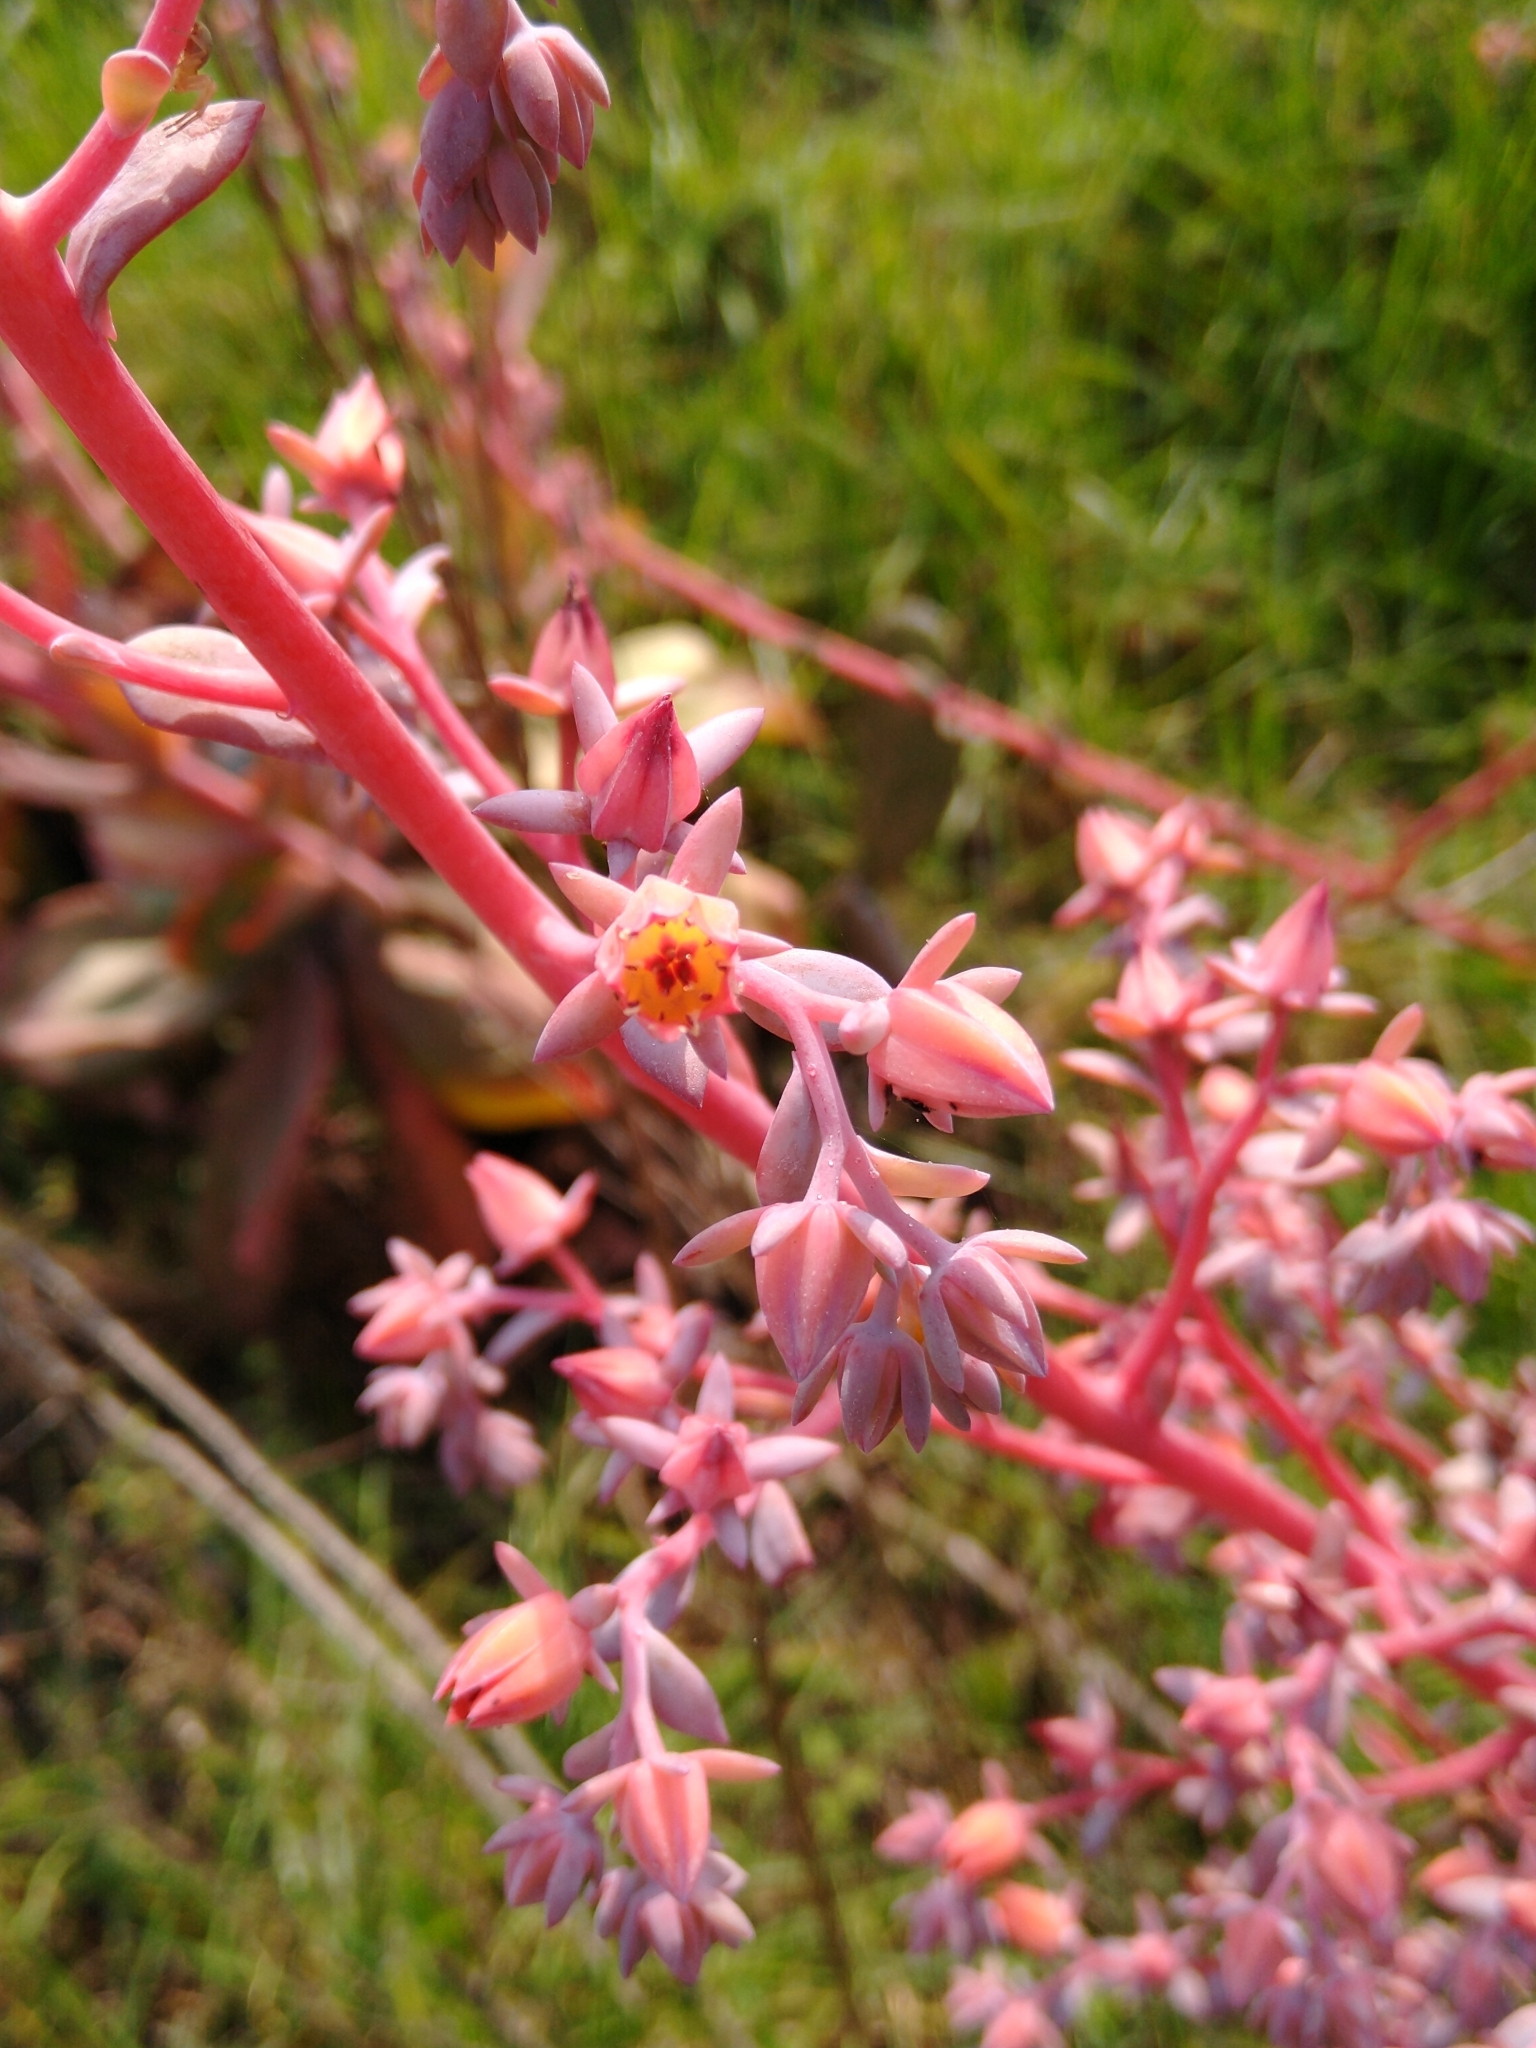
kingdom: Plantae
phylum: Tracheophyta
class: Magnoliopsida
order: Saxifragales
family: Crassulaceae
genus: Echeveria
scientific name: Echeveria gibbiflora
